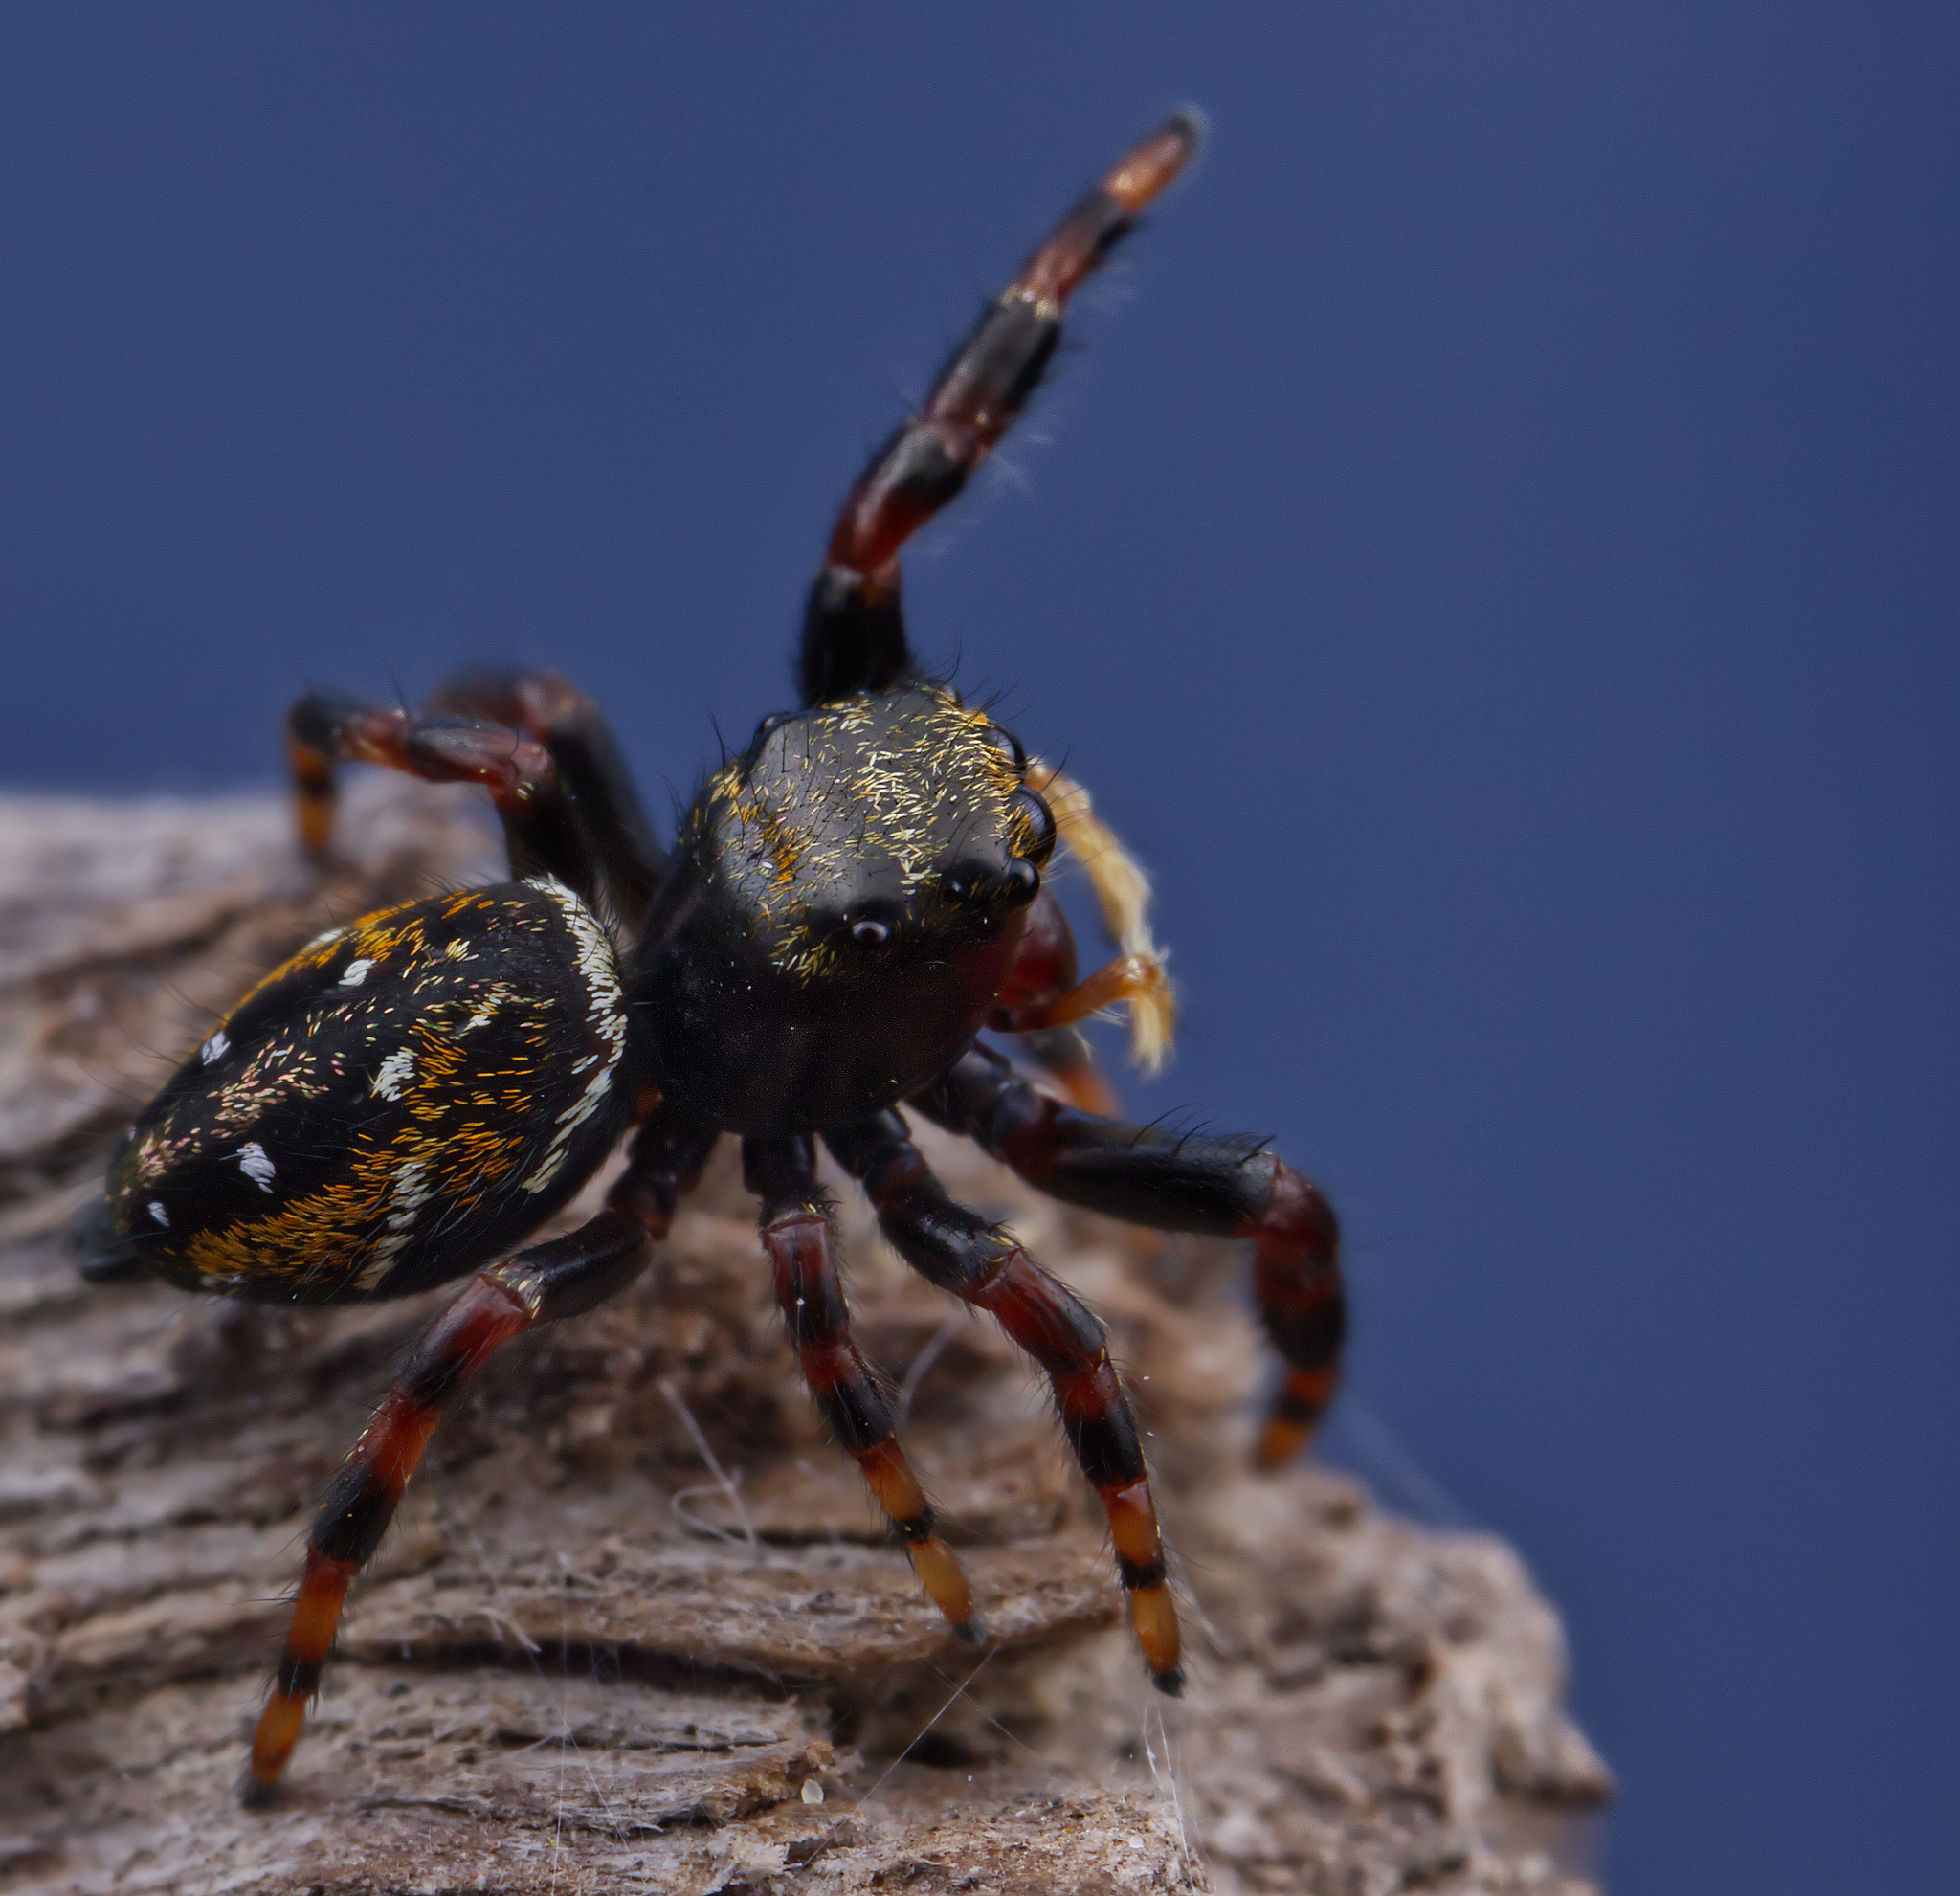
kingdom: Animalia
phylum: Arthropoda
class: Arachnida
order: Araneae
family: Salticidae
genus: Phidippus
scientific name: Phidippus clarus
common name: Brilliant jumping spider
